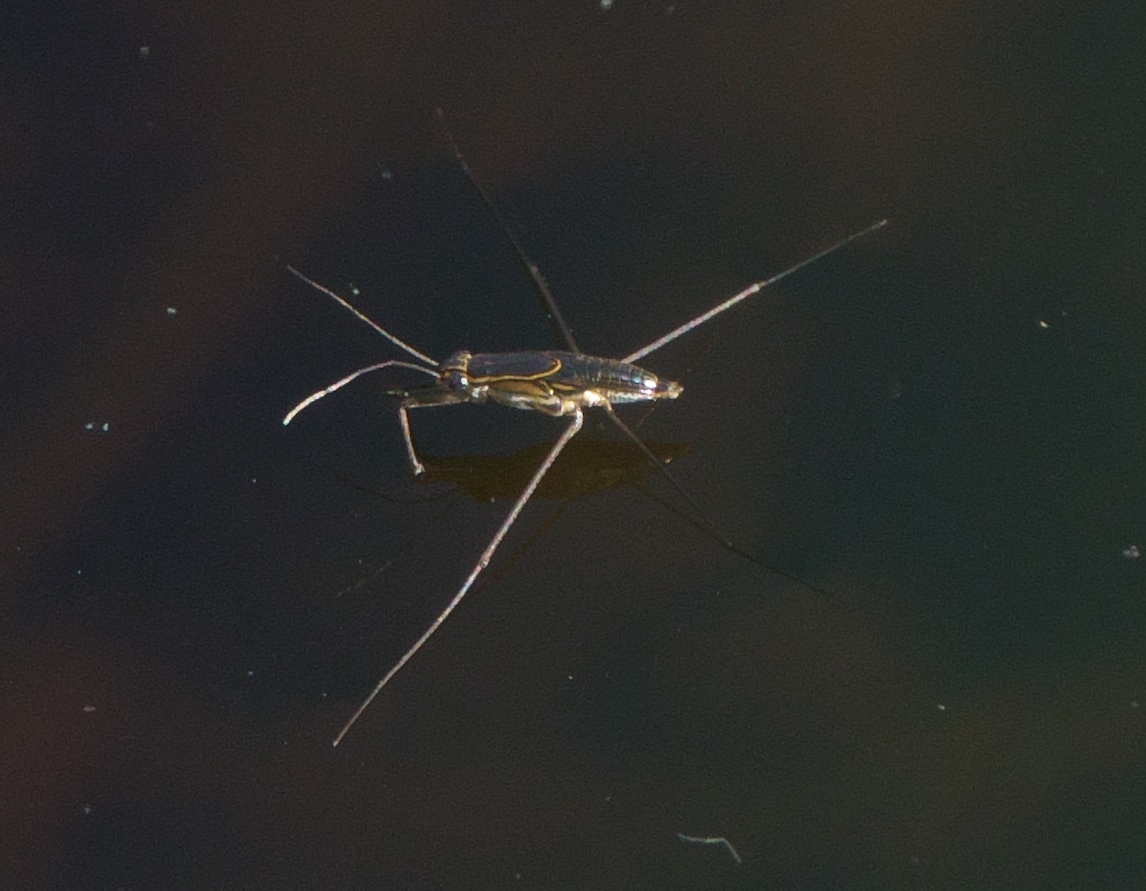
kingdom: Animalia
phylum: Arthropoda
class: Insecta
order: Hemiptera
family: Gerridae
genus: Limnogonus
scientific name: Limnogonus franciscanus
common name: Franciscan pond skater
